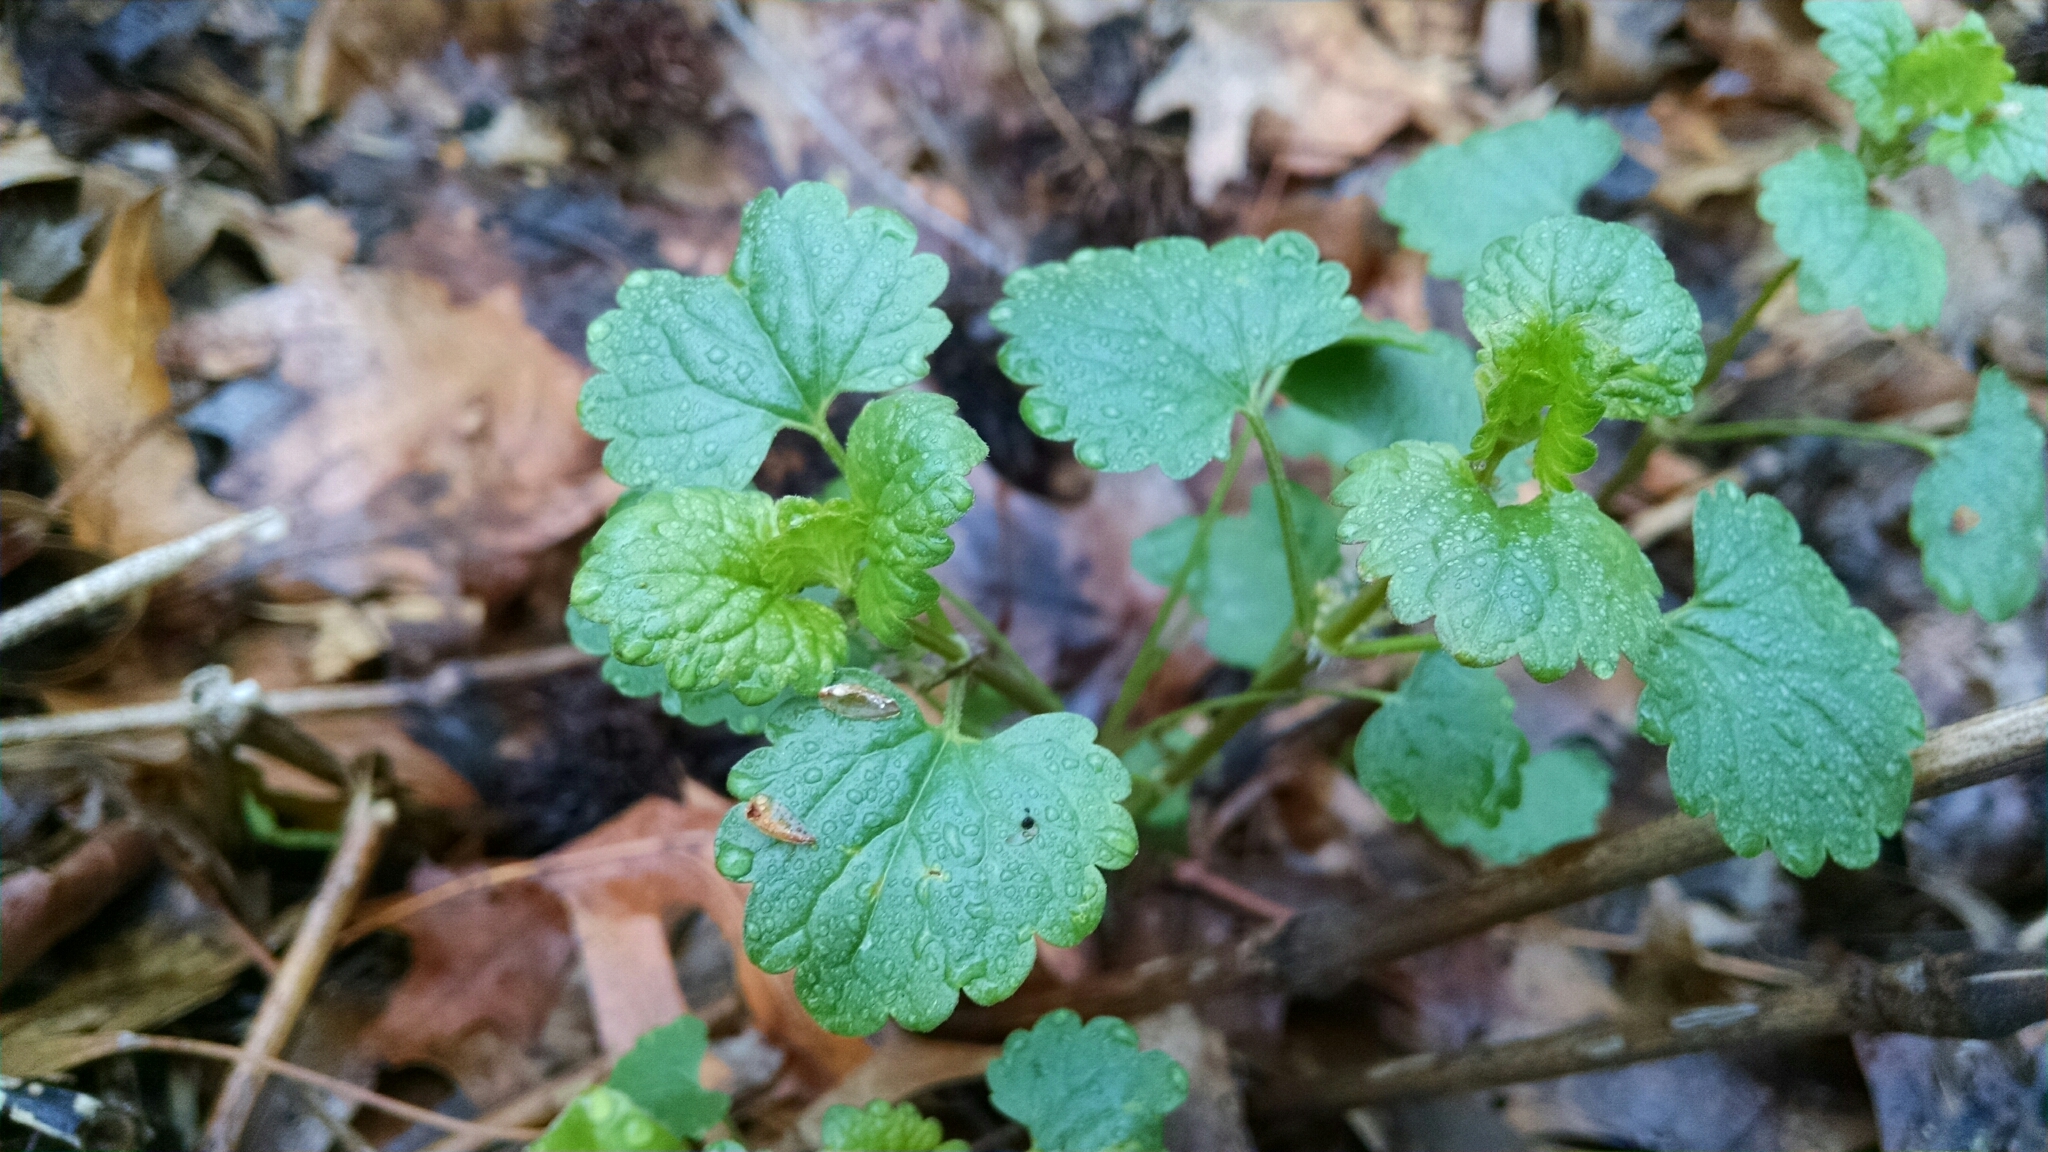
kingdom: Plantae
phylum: Tracheophyta
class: Magnoliopsida
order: Lamiales
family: Lamiaceae
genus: Glechoma
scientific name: Glechoma hederacea
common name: Ground ivy
